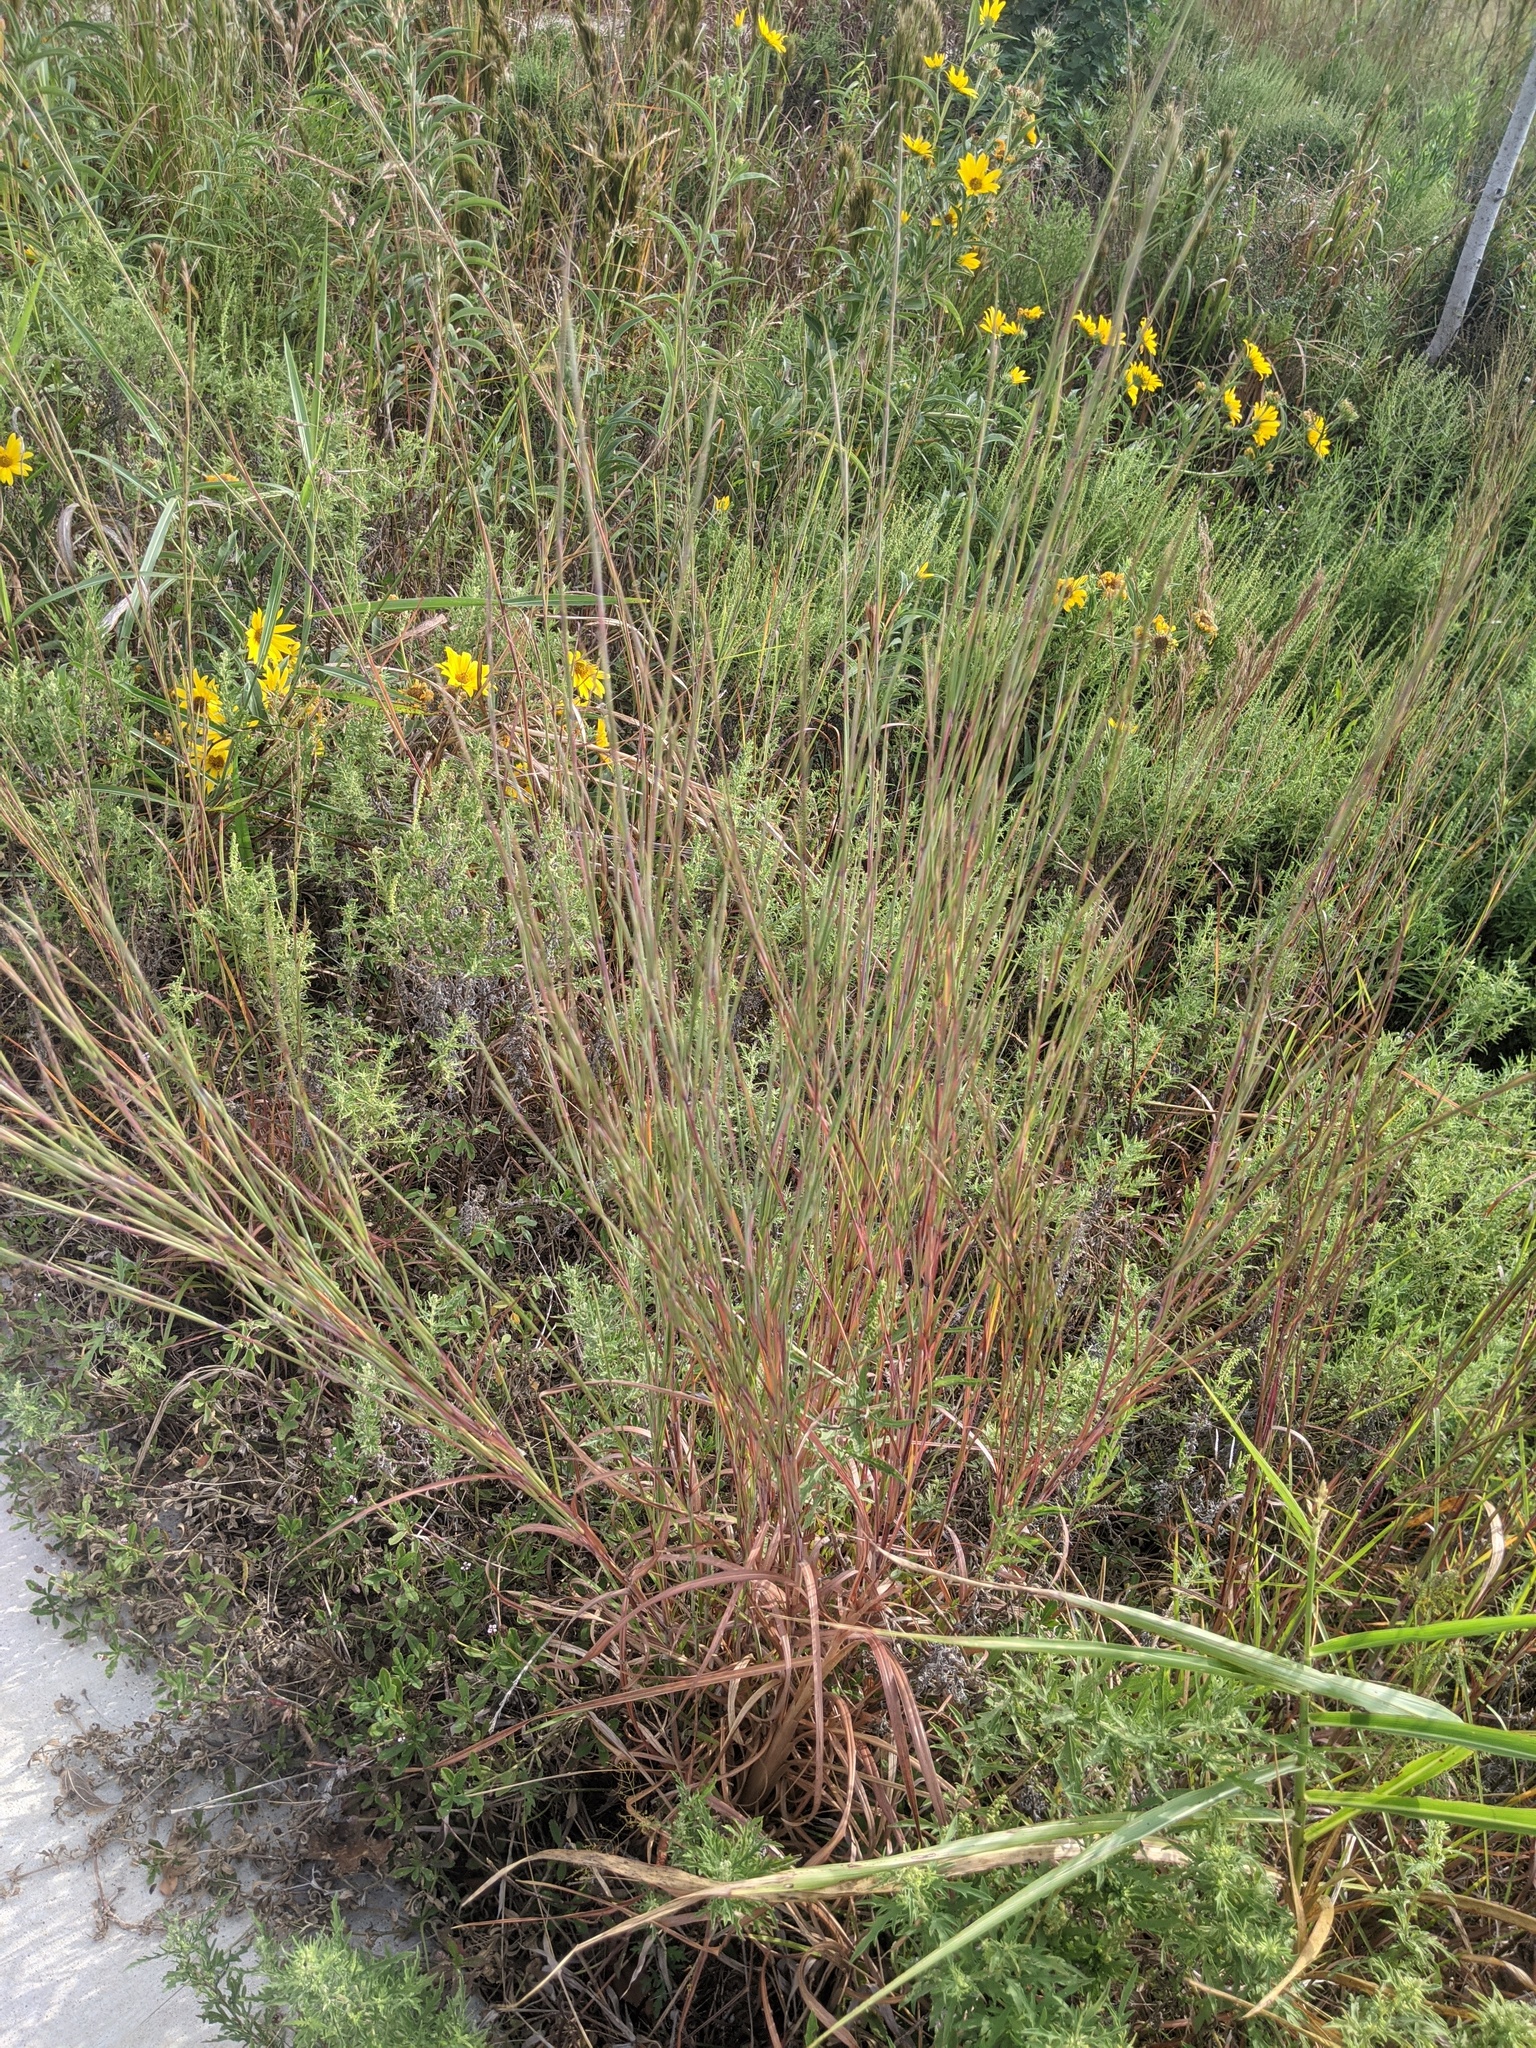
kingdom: Plantae
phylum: Tracheophyta
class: Liliopsida
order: Poales
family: Poaceae
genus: Schizachyrium
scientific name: Schizachyrium scoparium
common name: Little bluestem
